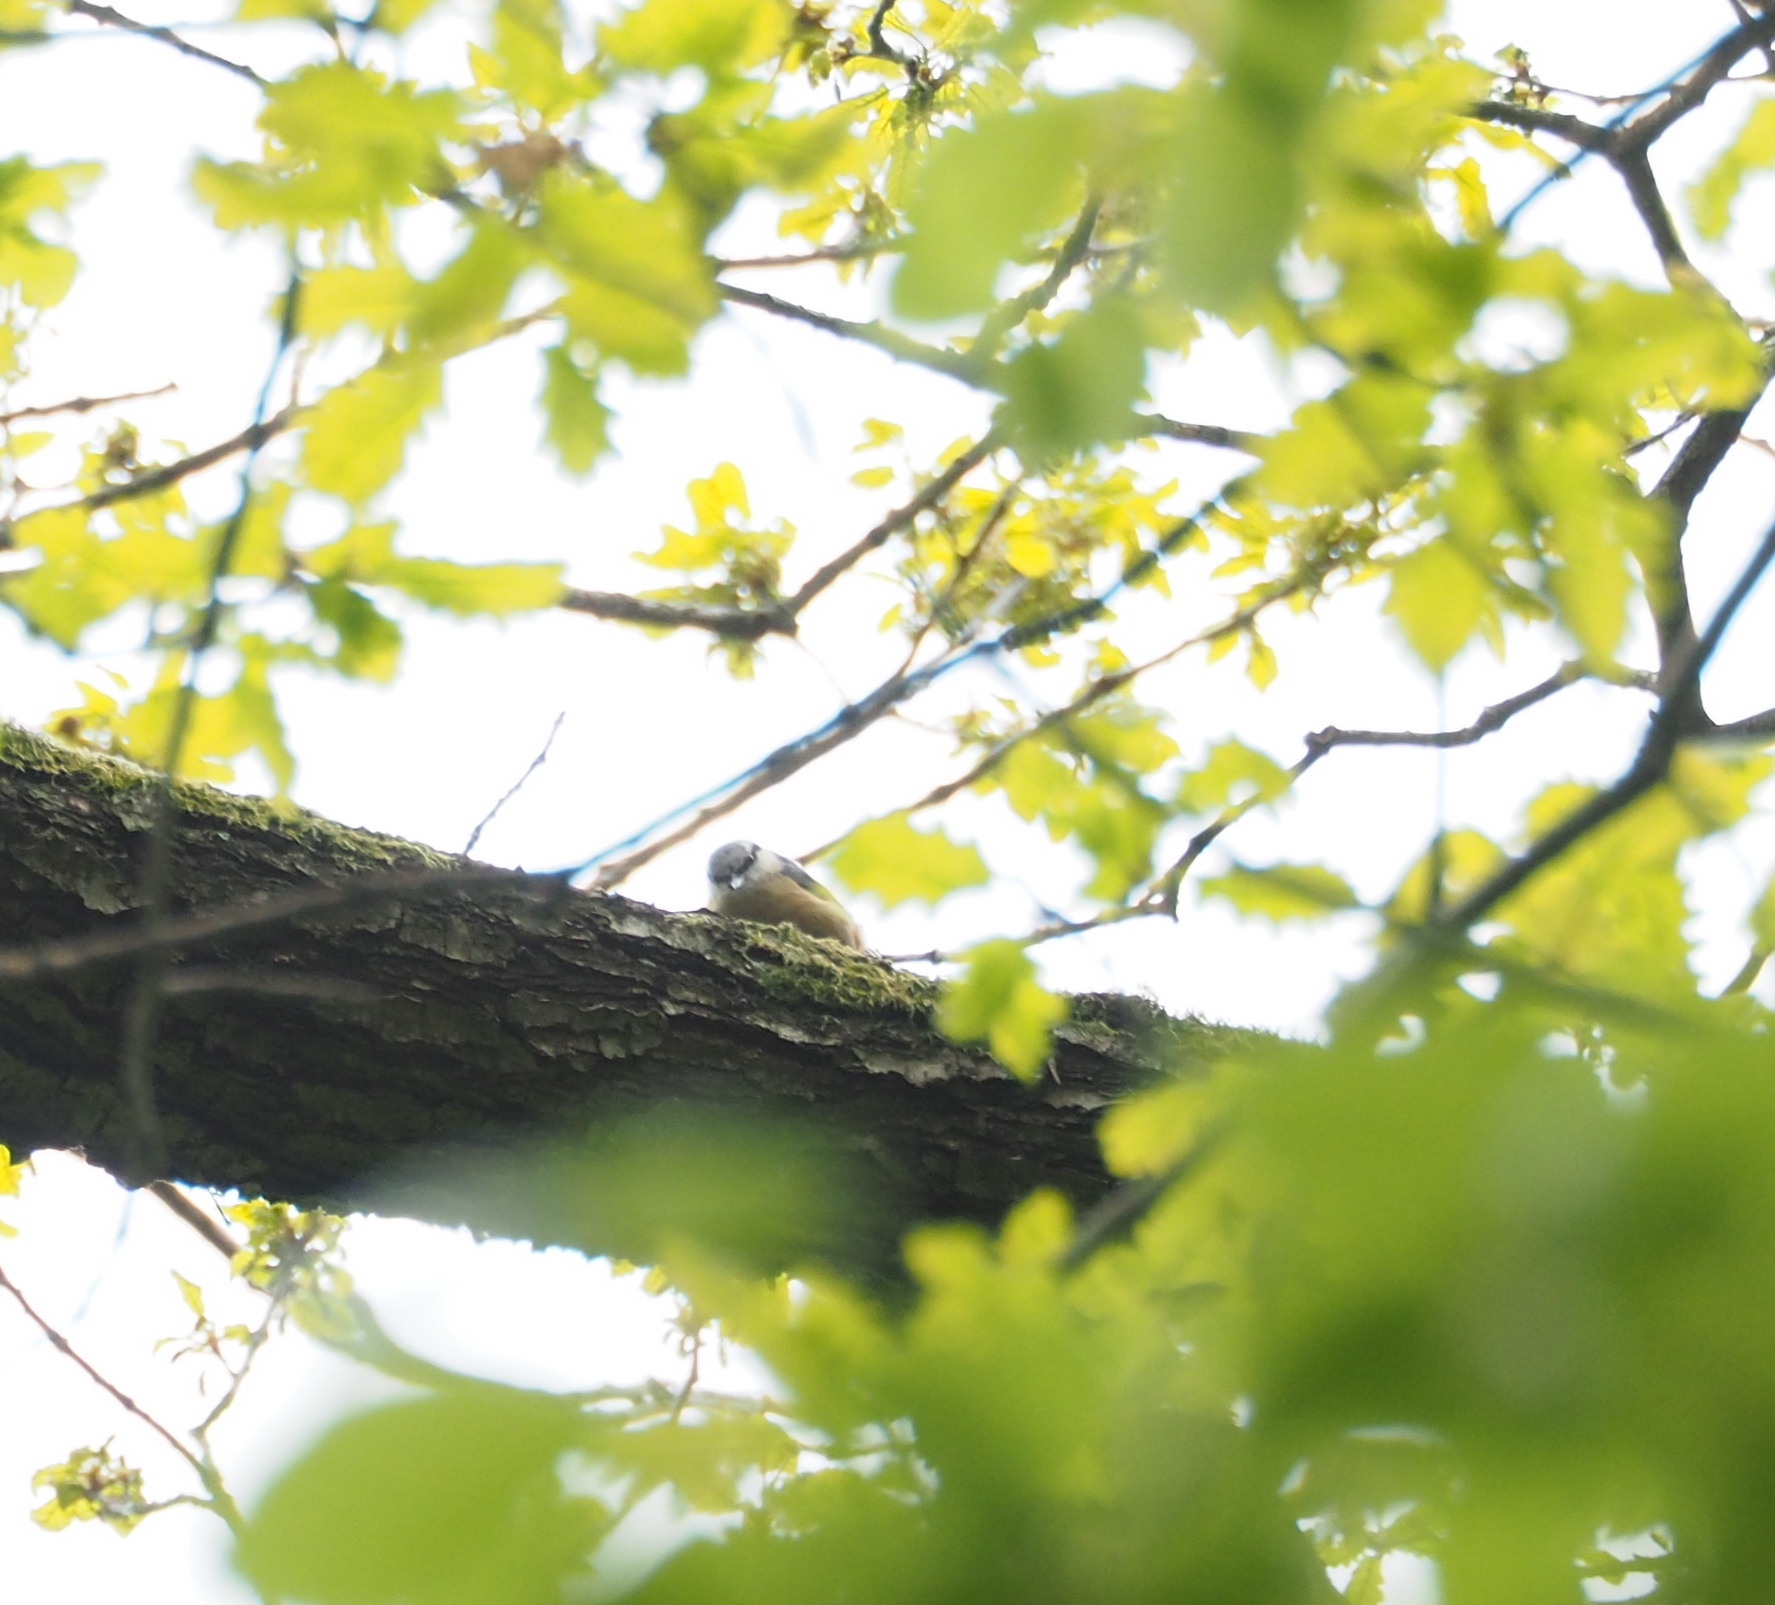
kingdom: Animalia
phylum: Chordata
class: Aves
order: Passeriformes
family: Sittidae
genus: Sitta
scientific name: Sitta europaea
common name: Eurasian nuthatch
